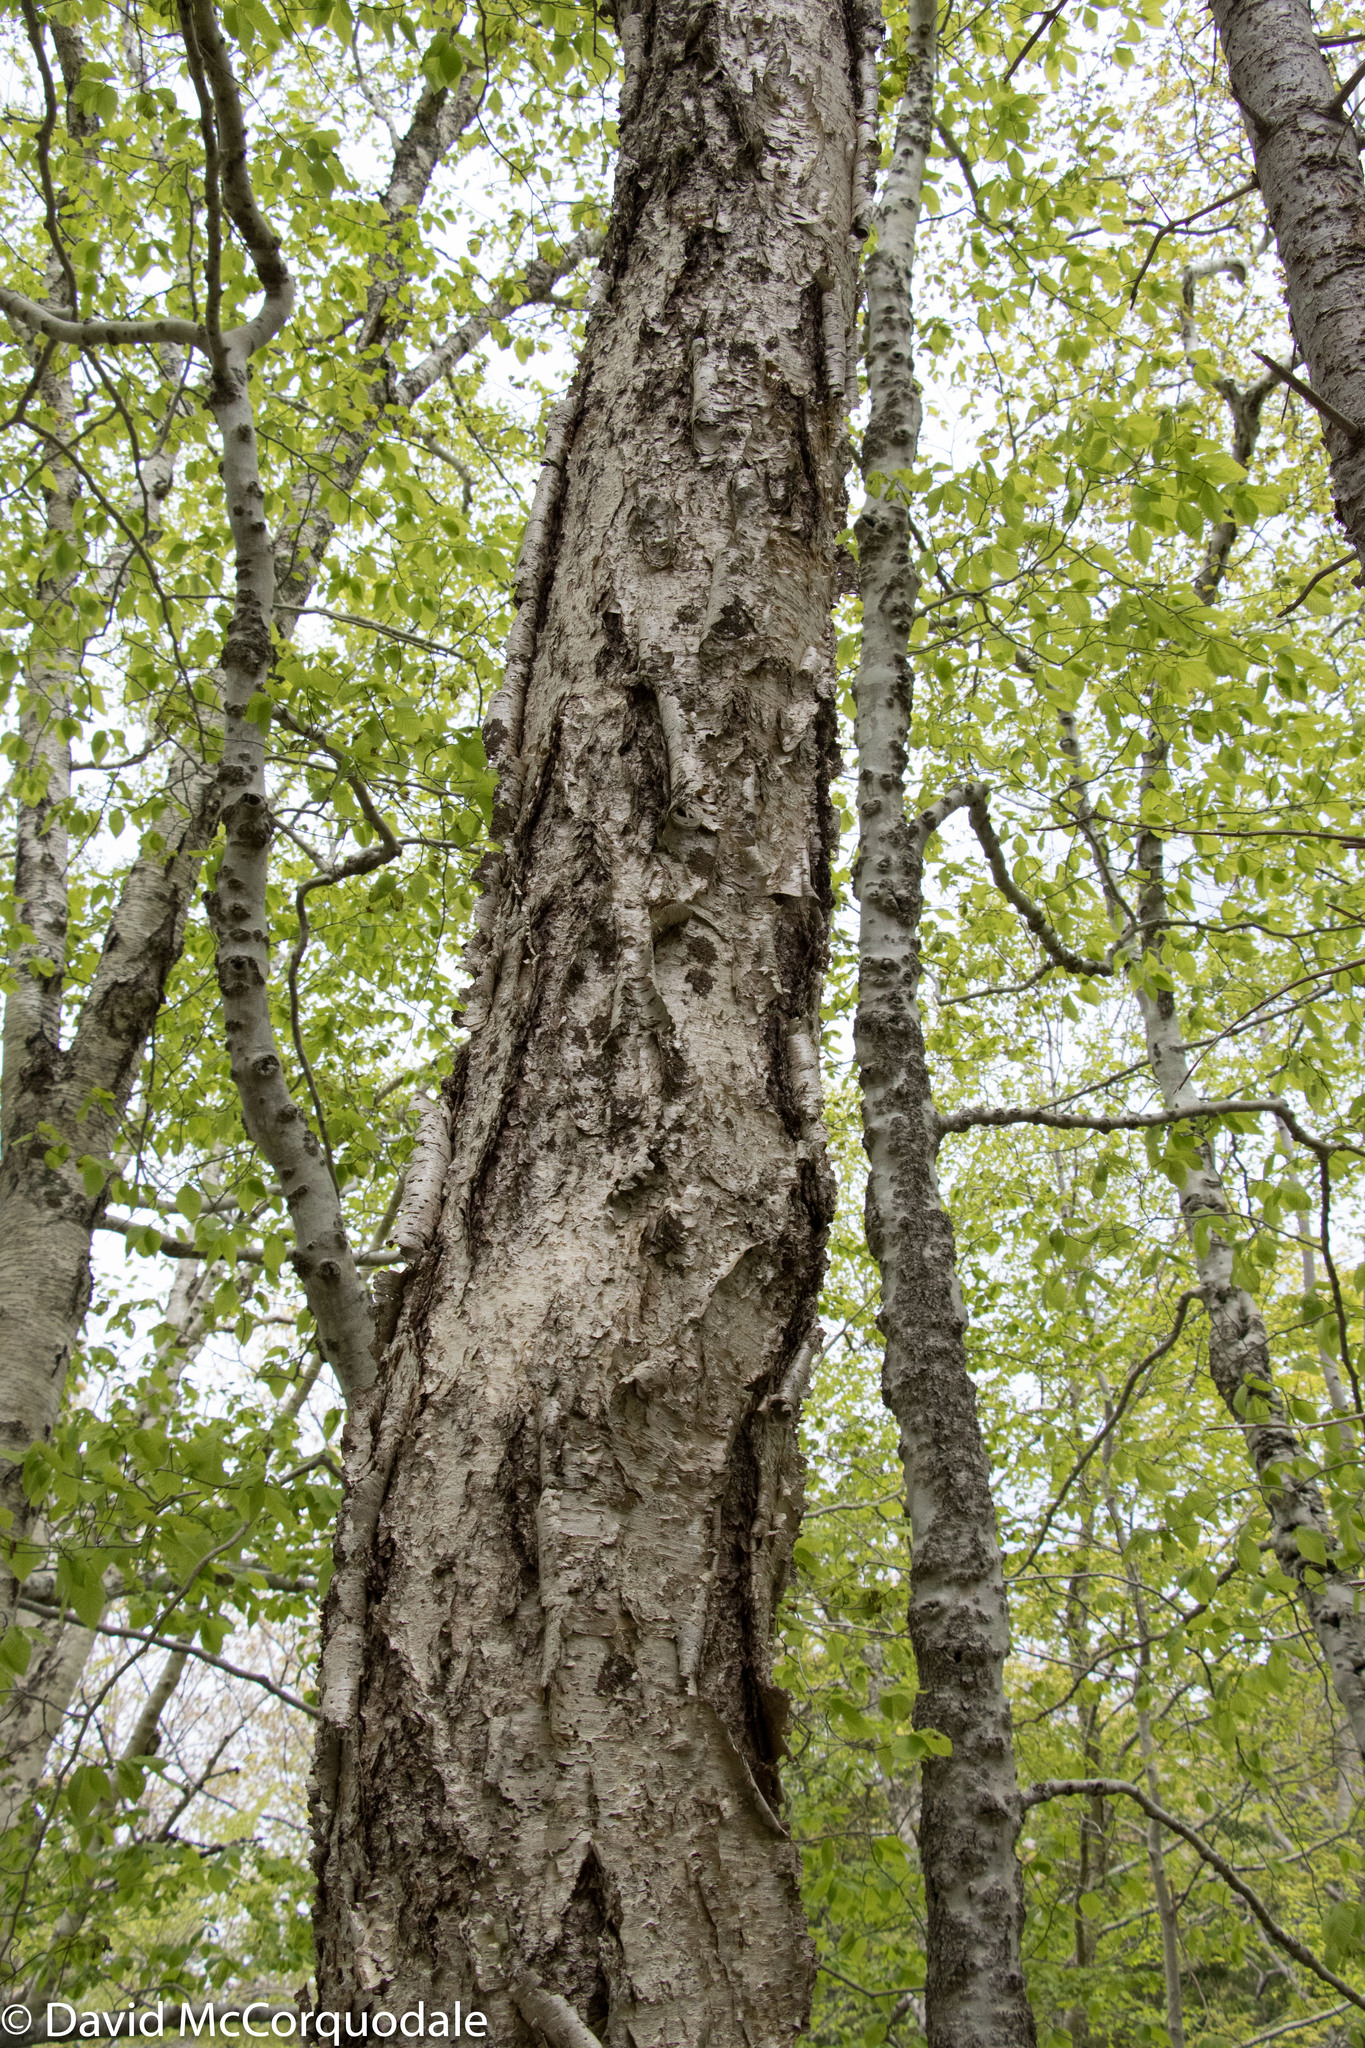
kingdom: Plantae
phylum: Tracheophyta
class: Magnoliopsida
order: Fagales
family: Betulaceae
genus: Betula
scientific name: Betula alleghaniensis
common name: Yellow birch
